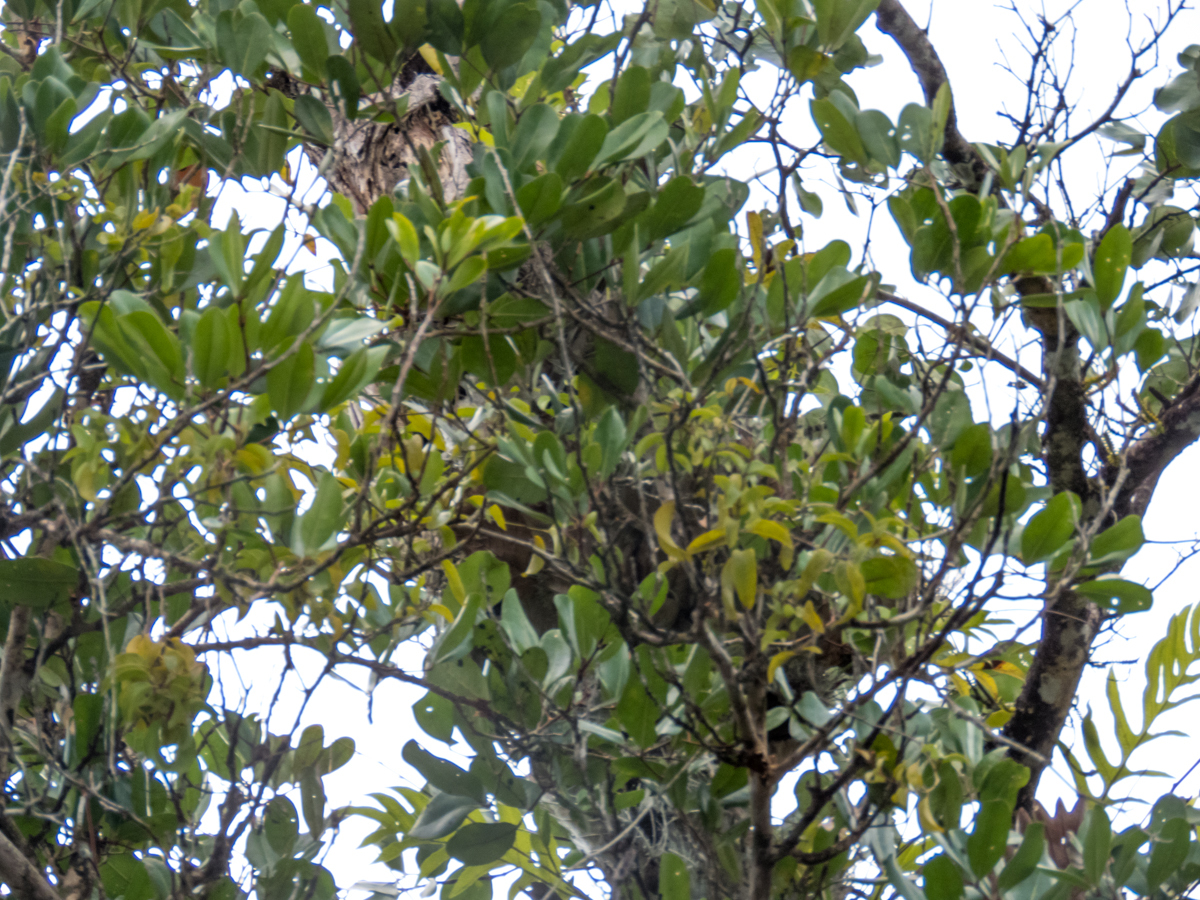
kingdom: Plantae
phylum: Tracheophyta
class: Magnoliopsida
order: Sapindales
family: Meliaceae
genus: Xylocarpus
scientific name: Xylocarpus granatum
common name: Apple mangrove
